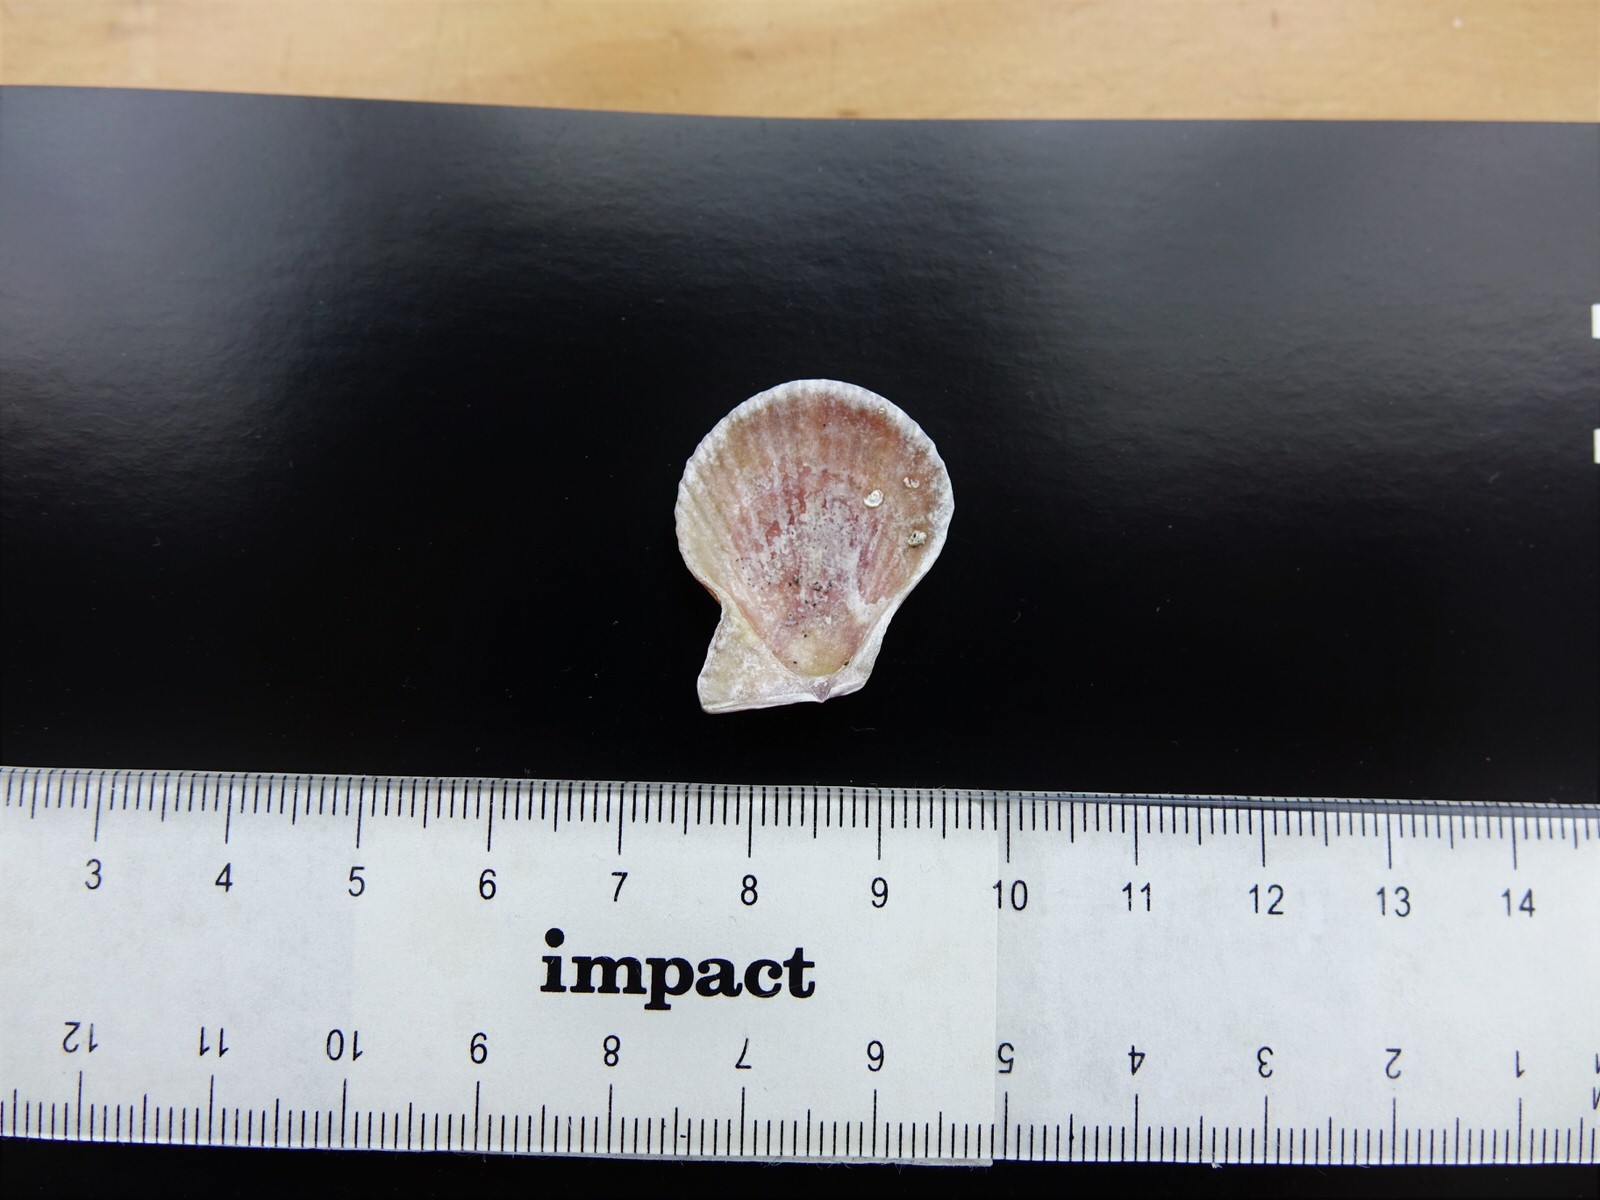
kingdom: Animalia
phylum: Mollusca
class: Bivalvia
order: Pectinida
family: Pectinidae
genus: Talochlamys
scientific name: Talochlamys zelandiae
